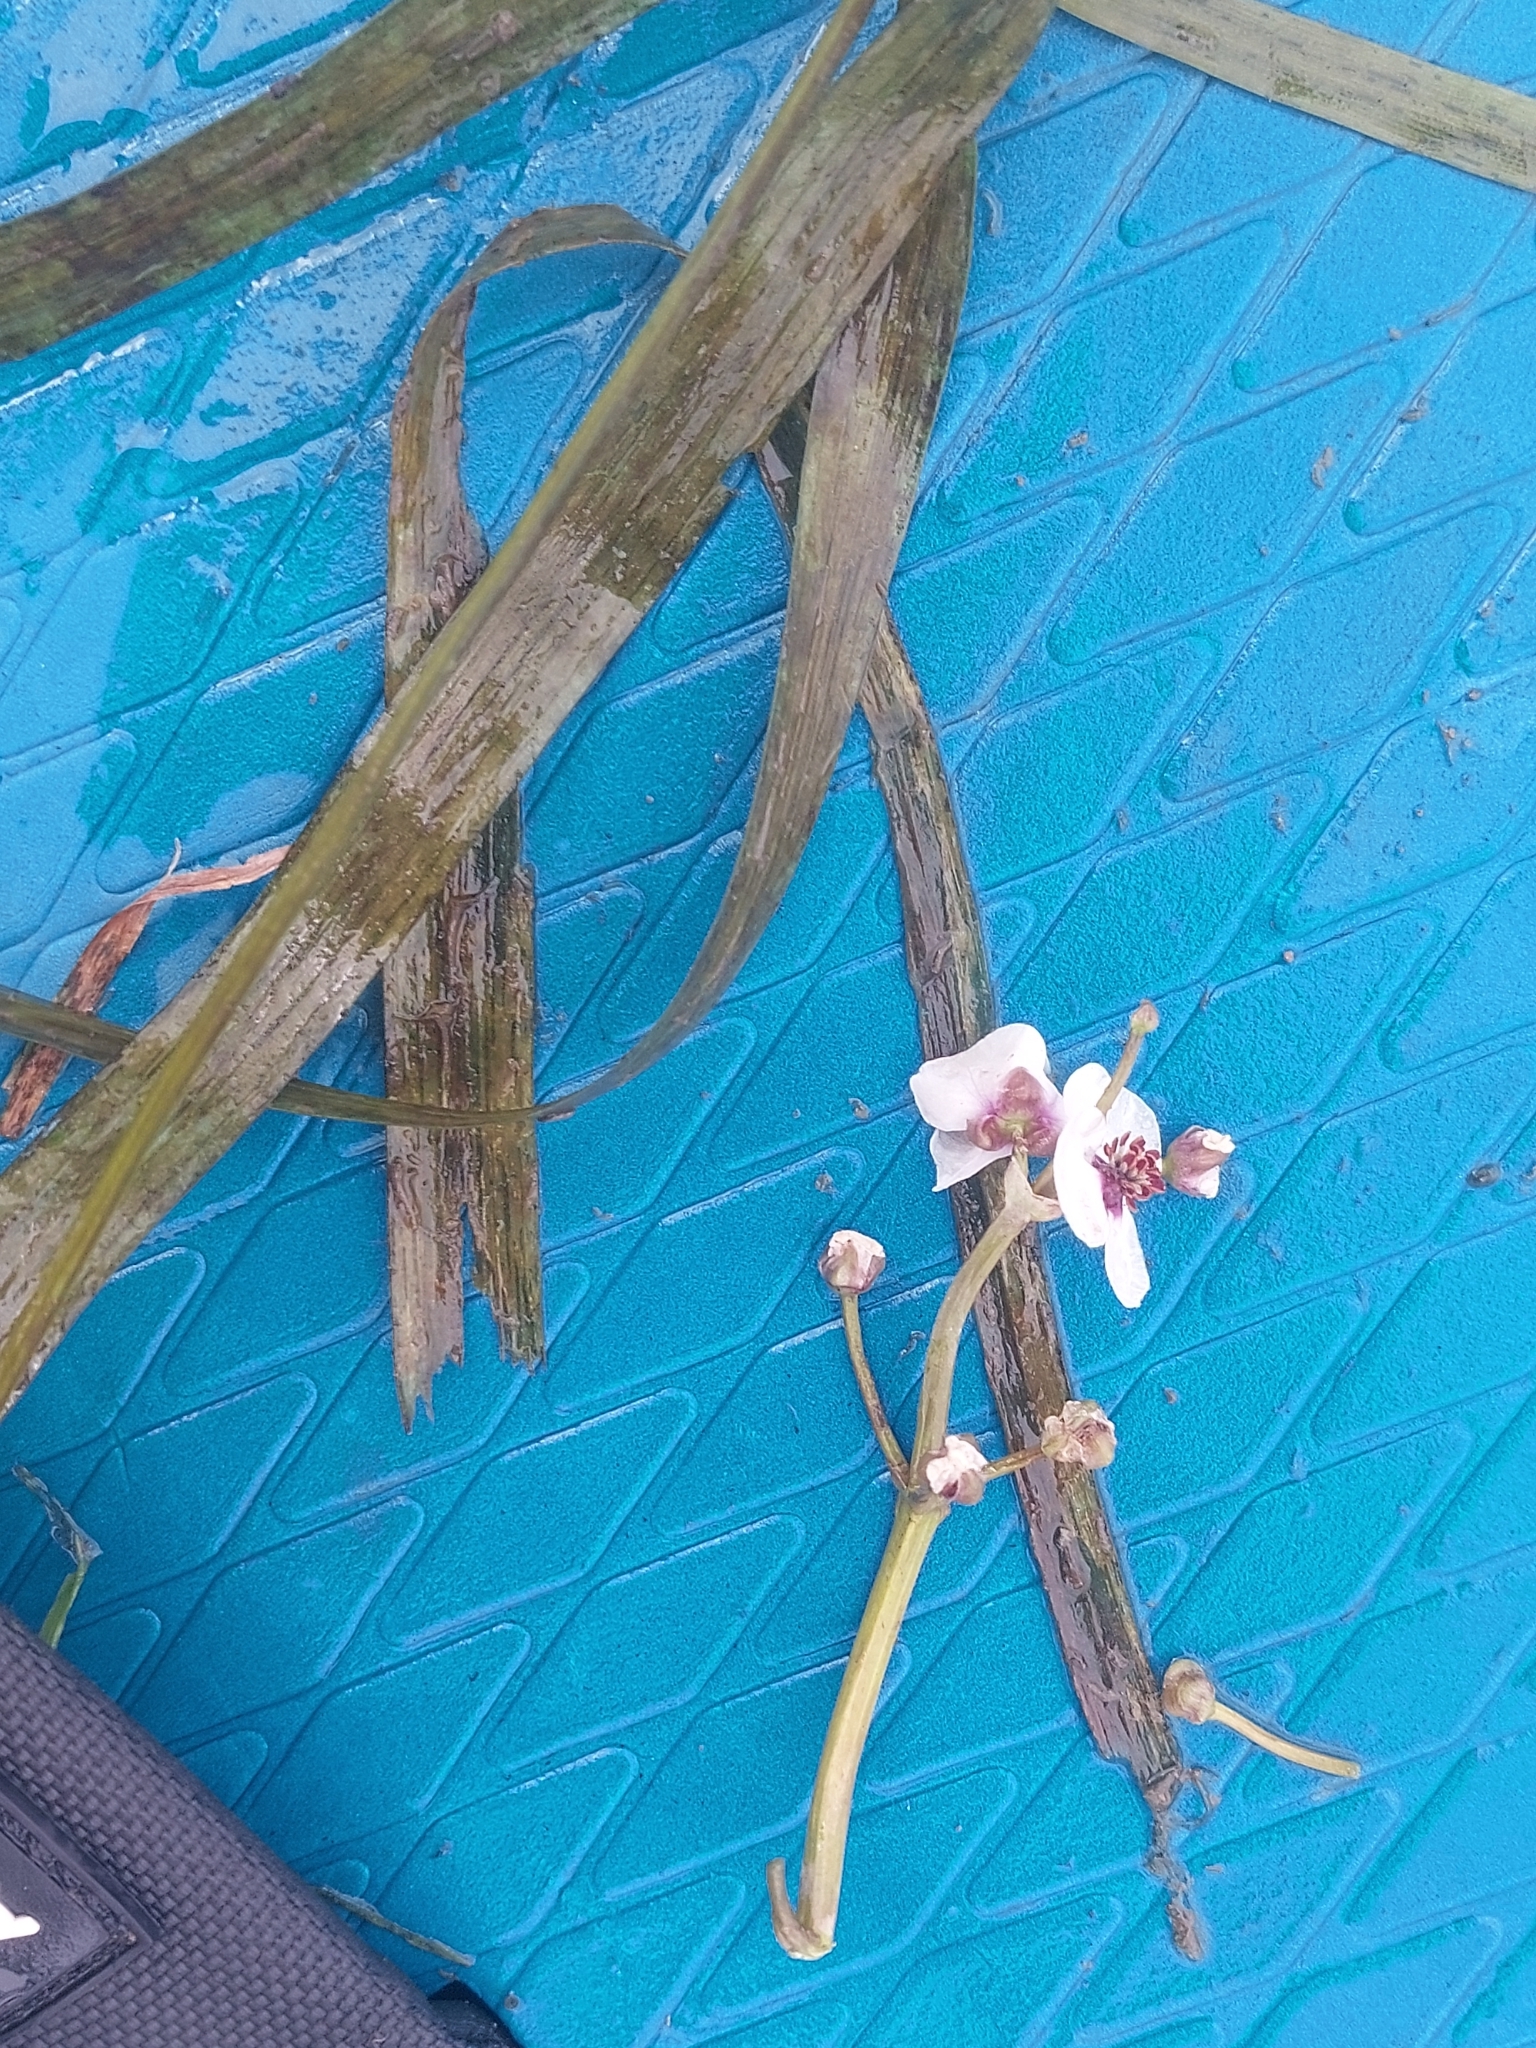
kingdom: Plantae
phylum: Tracheophyta
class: Liliopsida
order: Alismatales
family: Alismataceae
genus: Sagittaria
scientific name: Sagittaria sagittifolia
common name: Arrowhead
